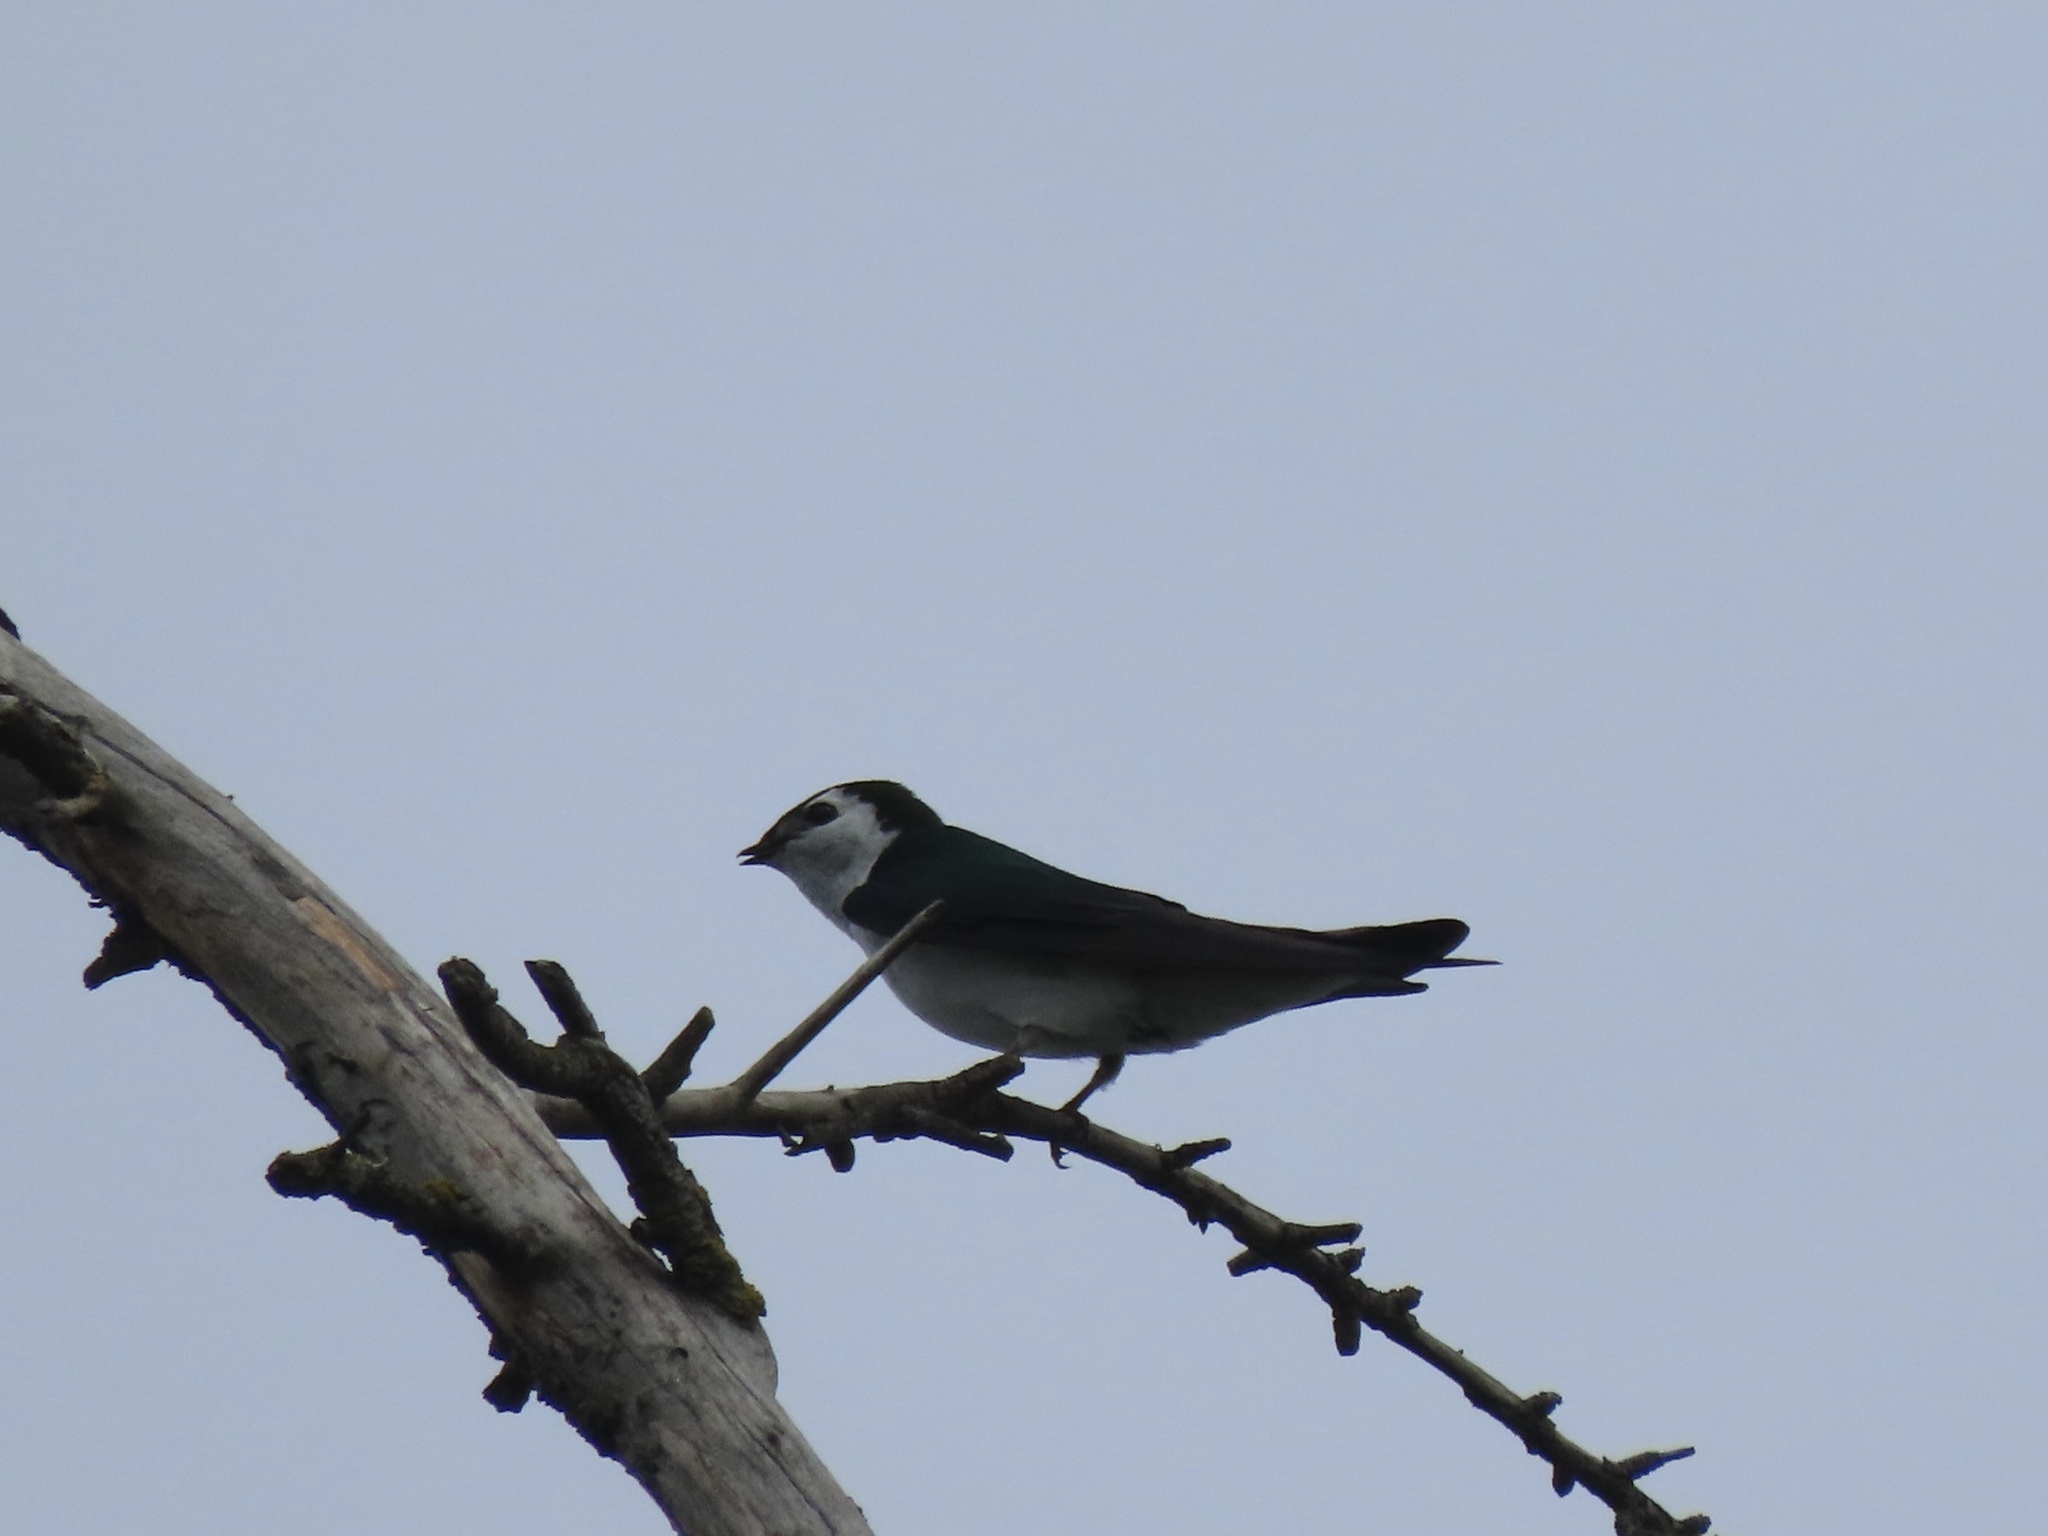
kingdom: Animalia
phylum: Chordata
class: Aves
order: Passeriformes
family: Hirundinidae
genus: Tachycineta
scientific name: Tachycineta thalassina
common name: Violet-green swallow
